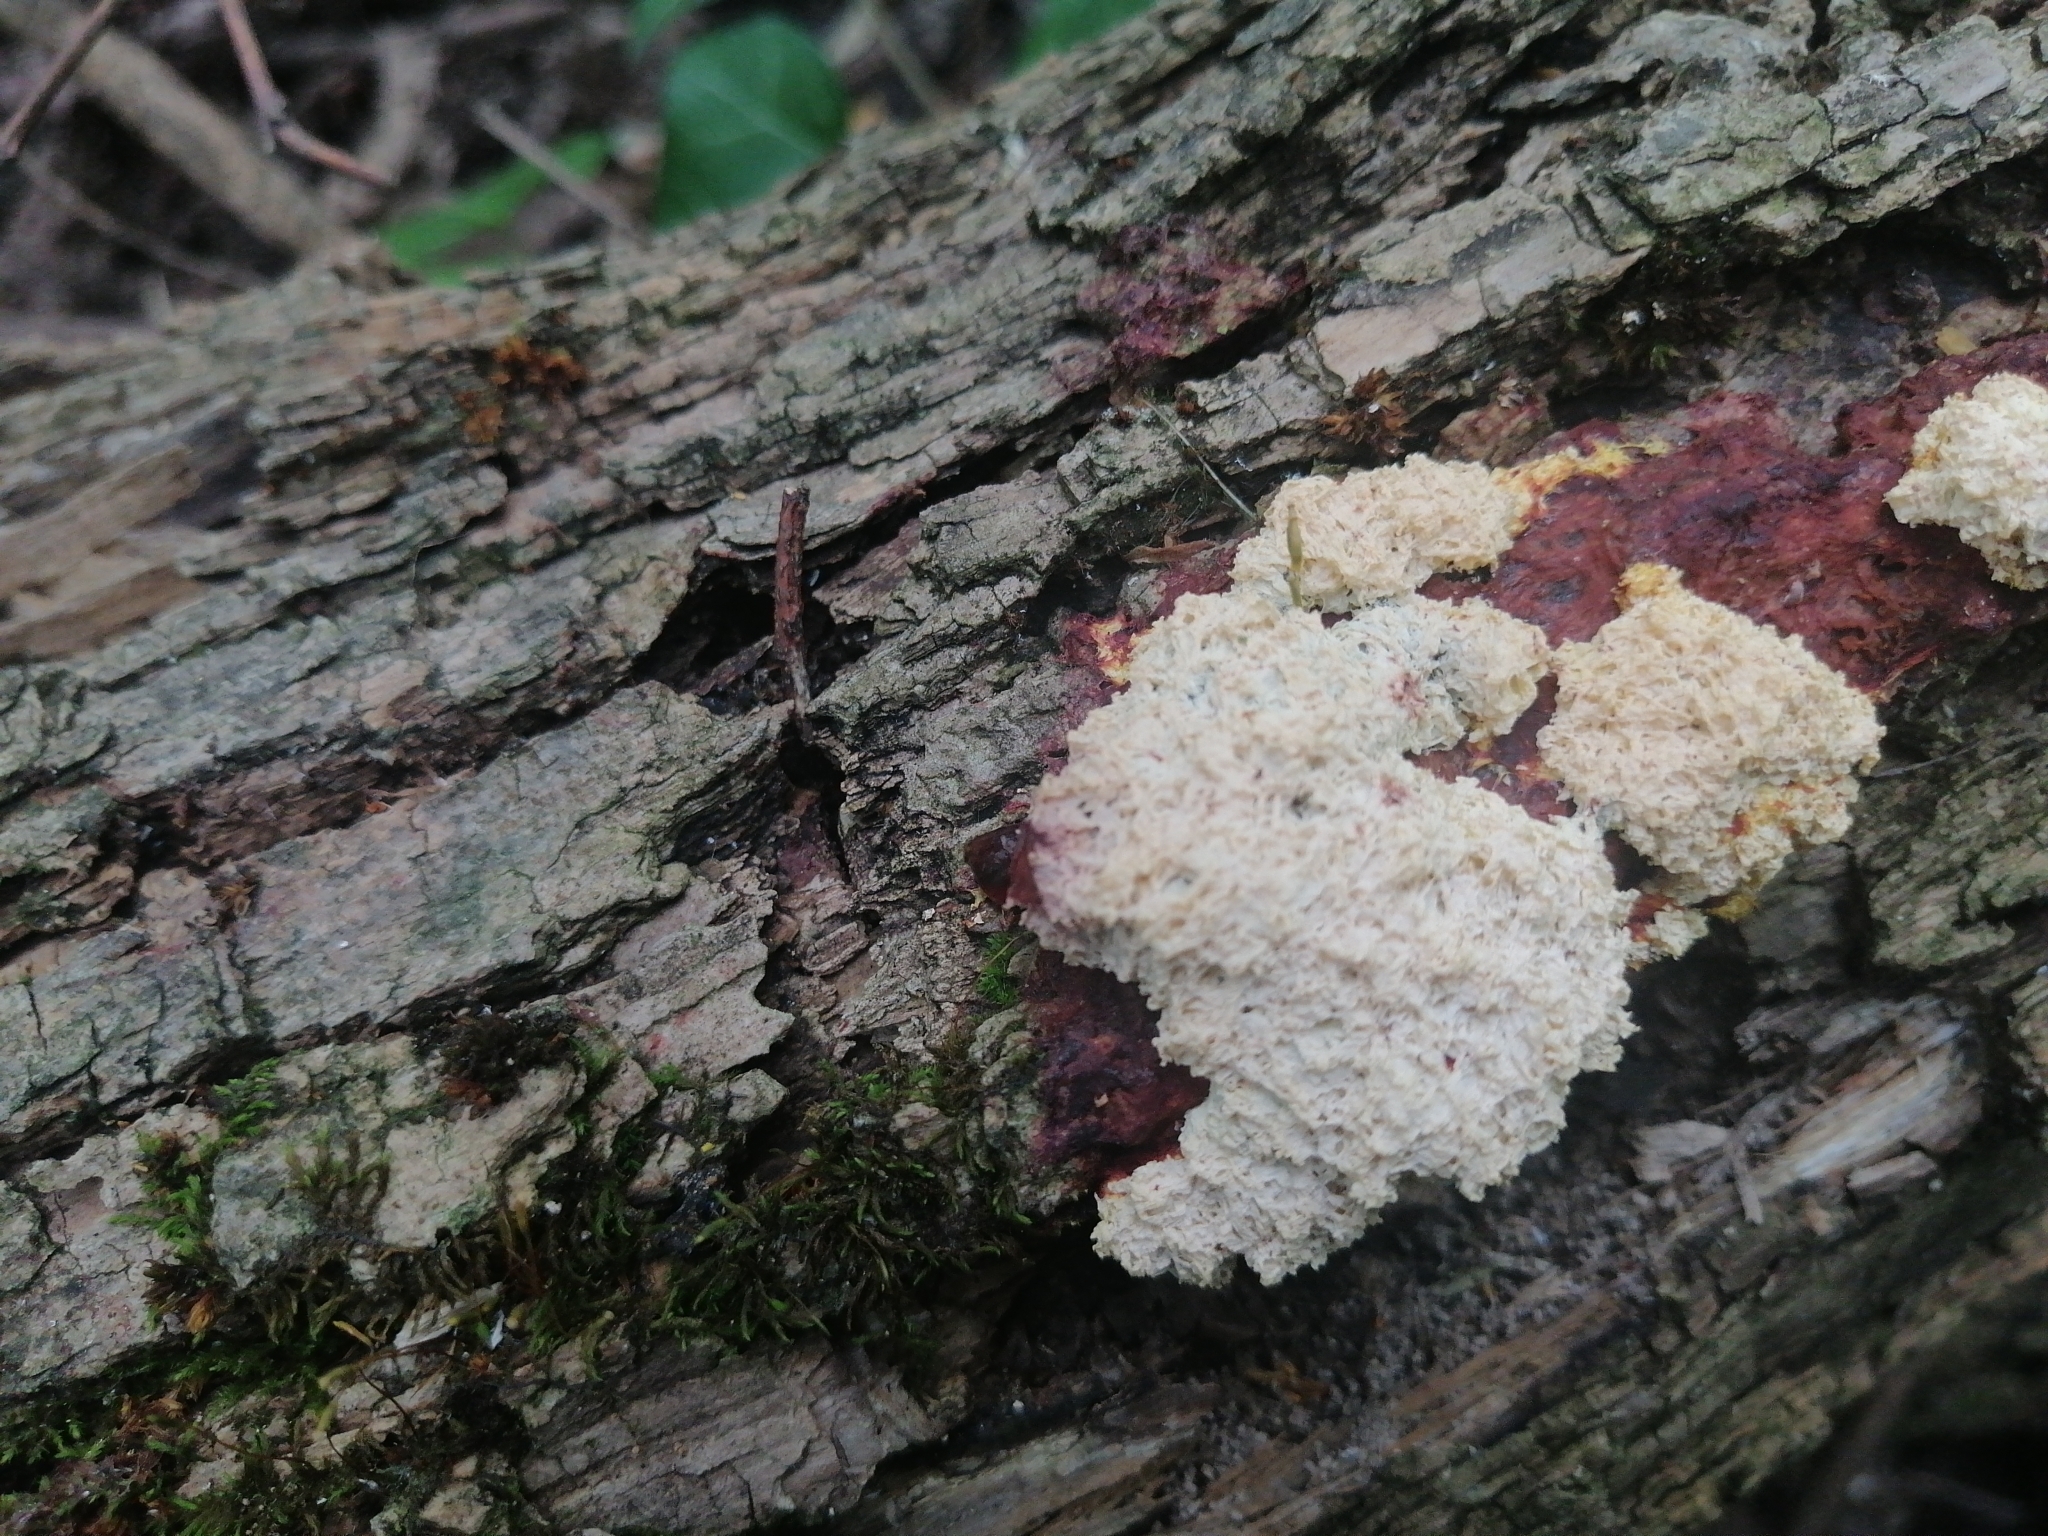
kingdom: Protozoa
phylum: Mycetozoa
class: Myxomycetes
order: Physarales
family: Physaraceae
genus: Fuligo
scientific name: Fuligo septica
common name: Dog vomit slime mold
